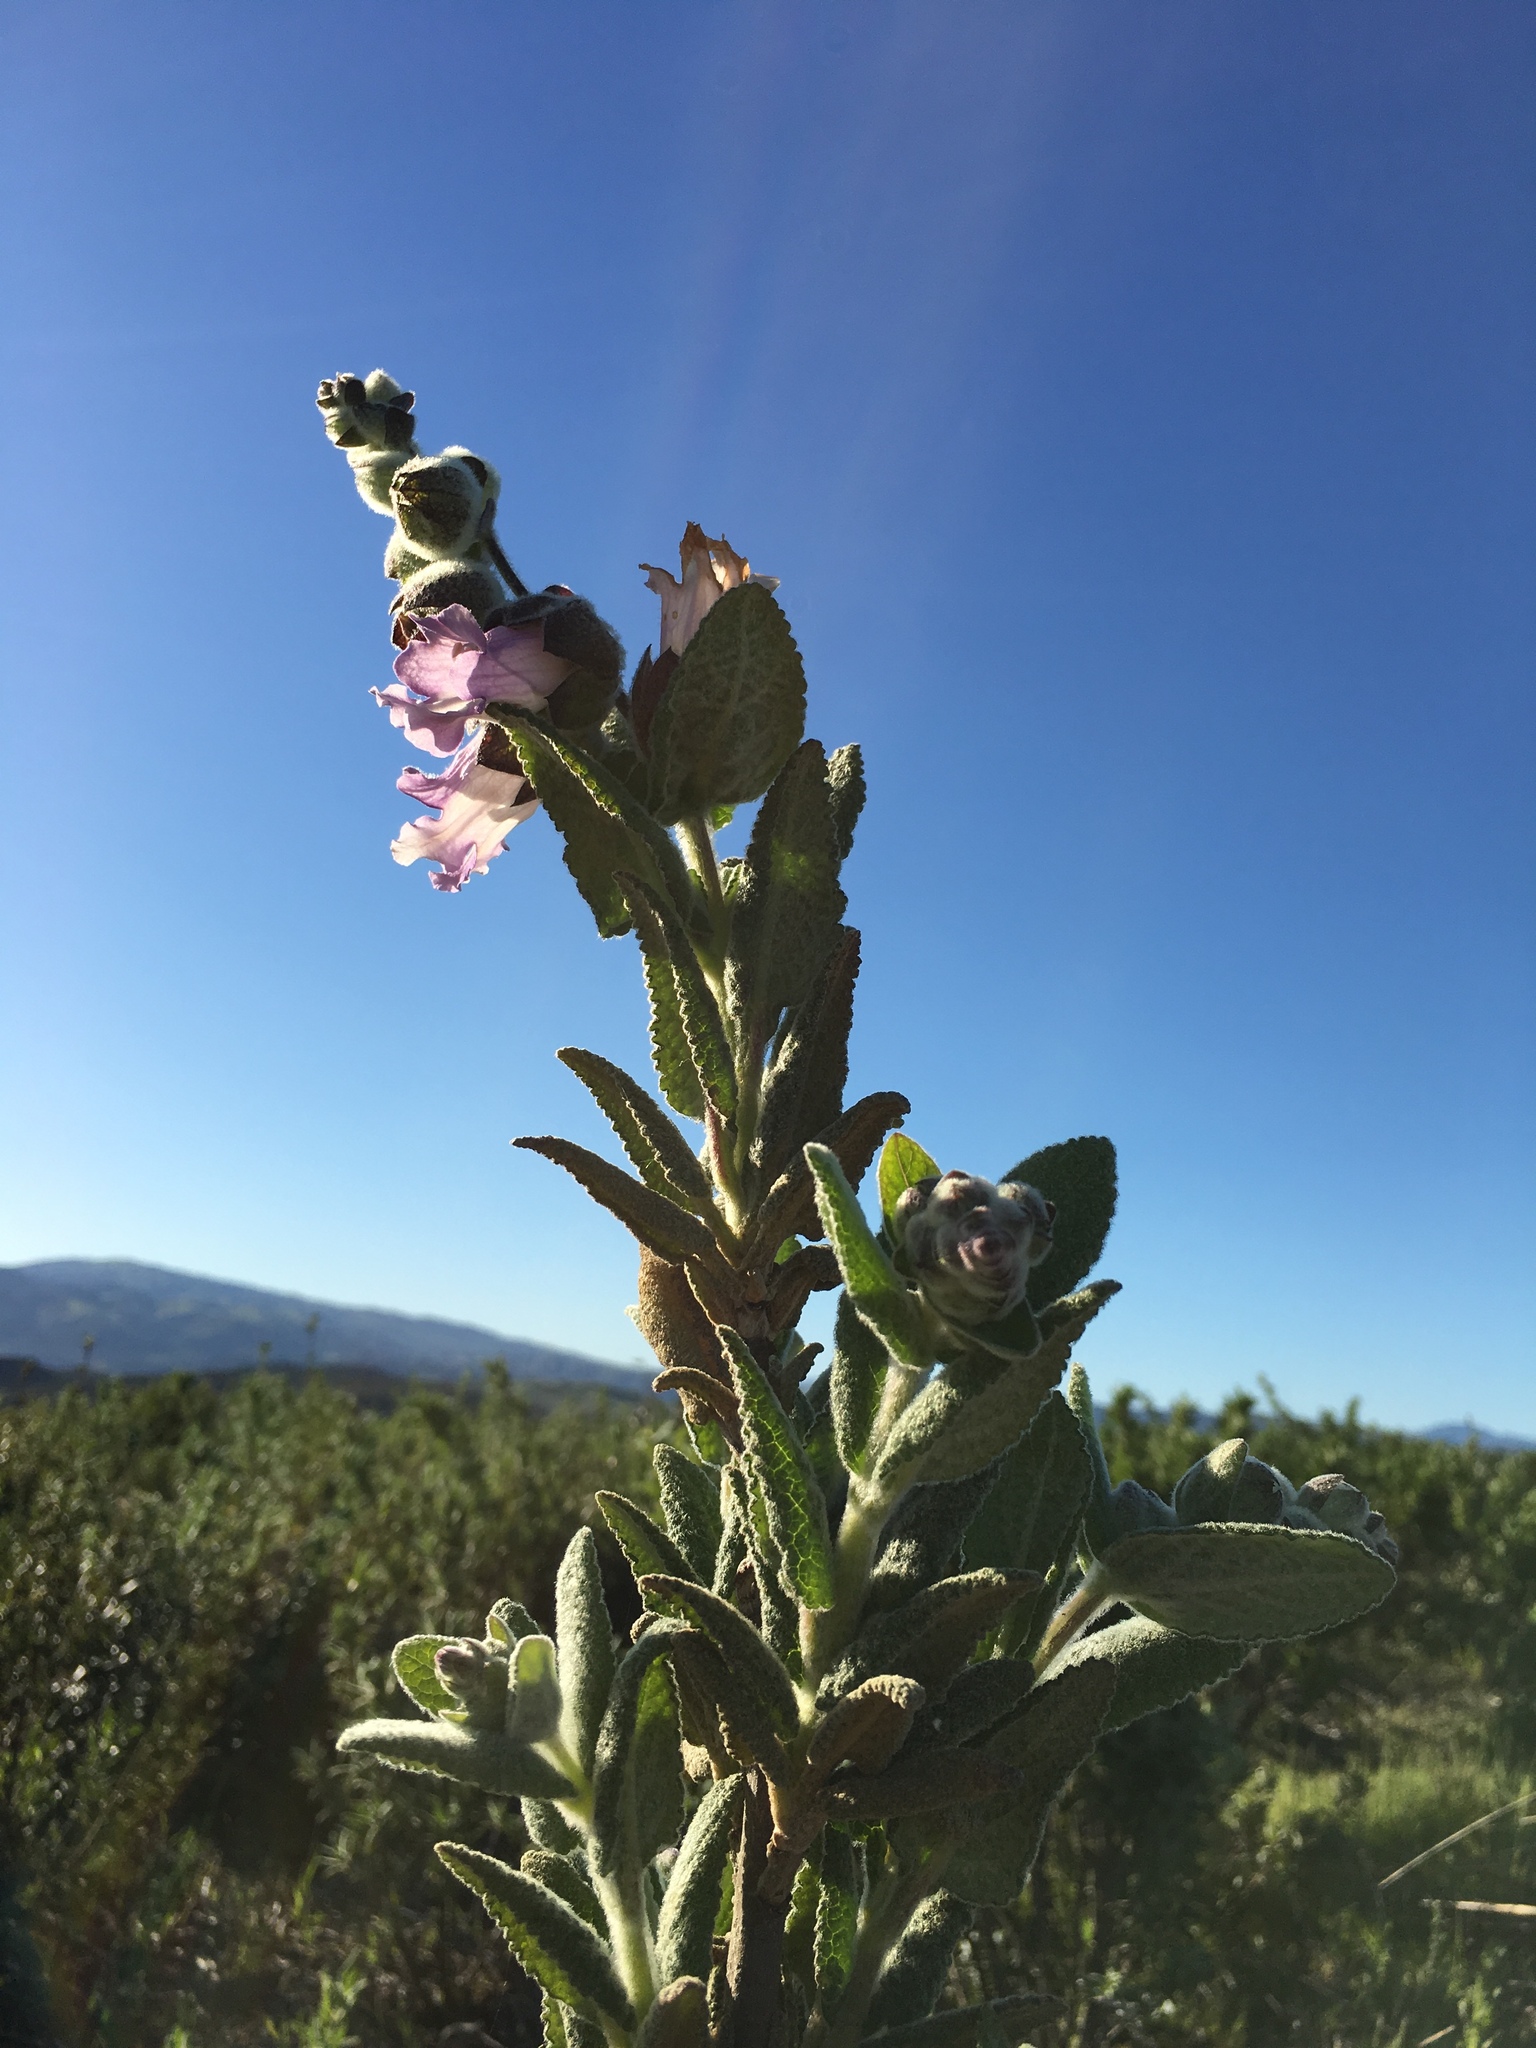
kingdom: Plantae
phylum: Tracheophyta
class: Magnoliopsida
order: Lamiales
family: Lamiaceae
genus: Lepechinia
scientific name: Lepechinia calycina
